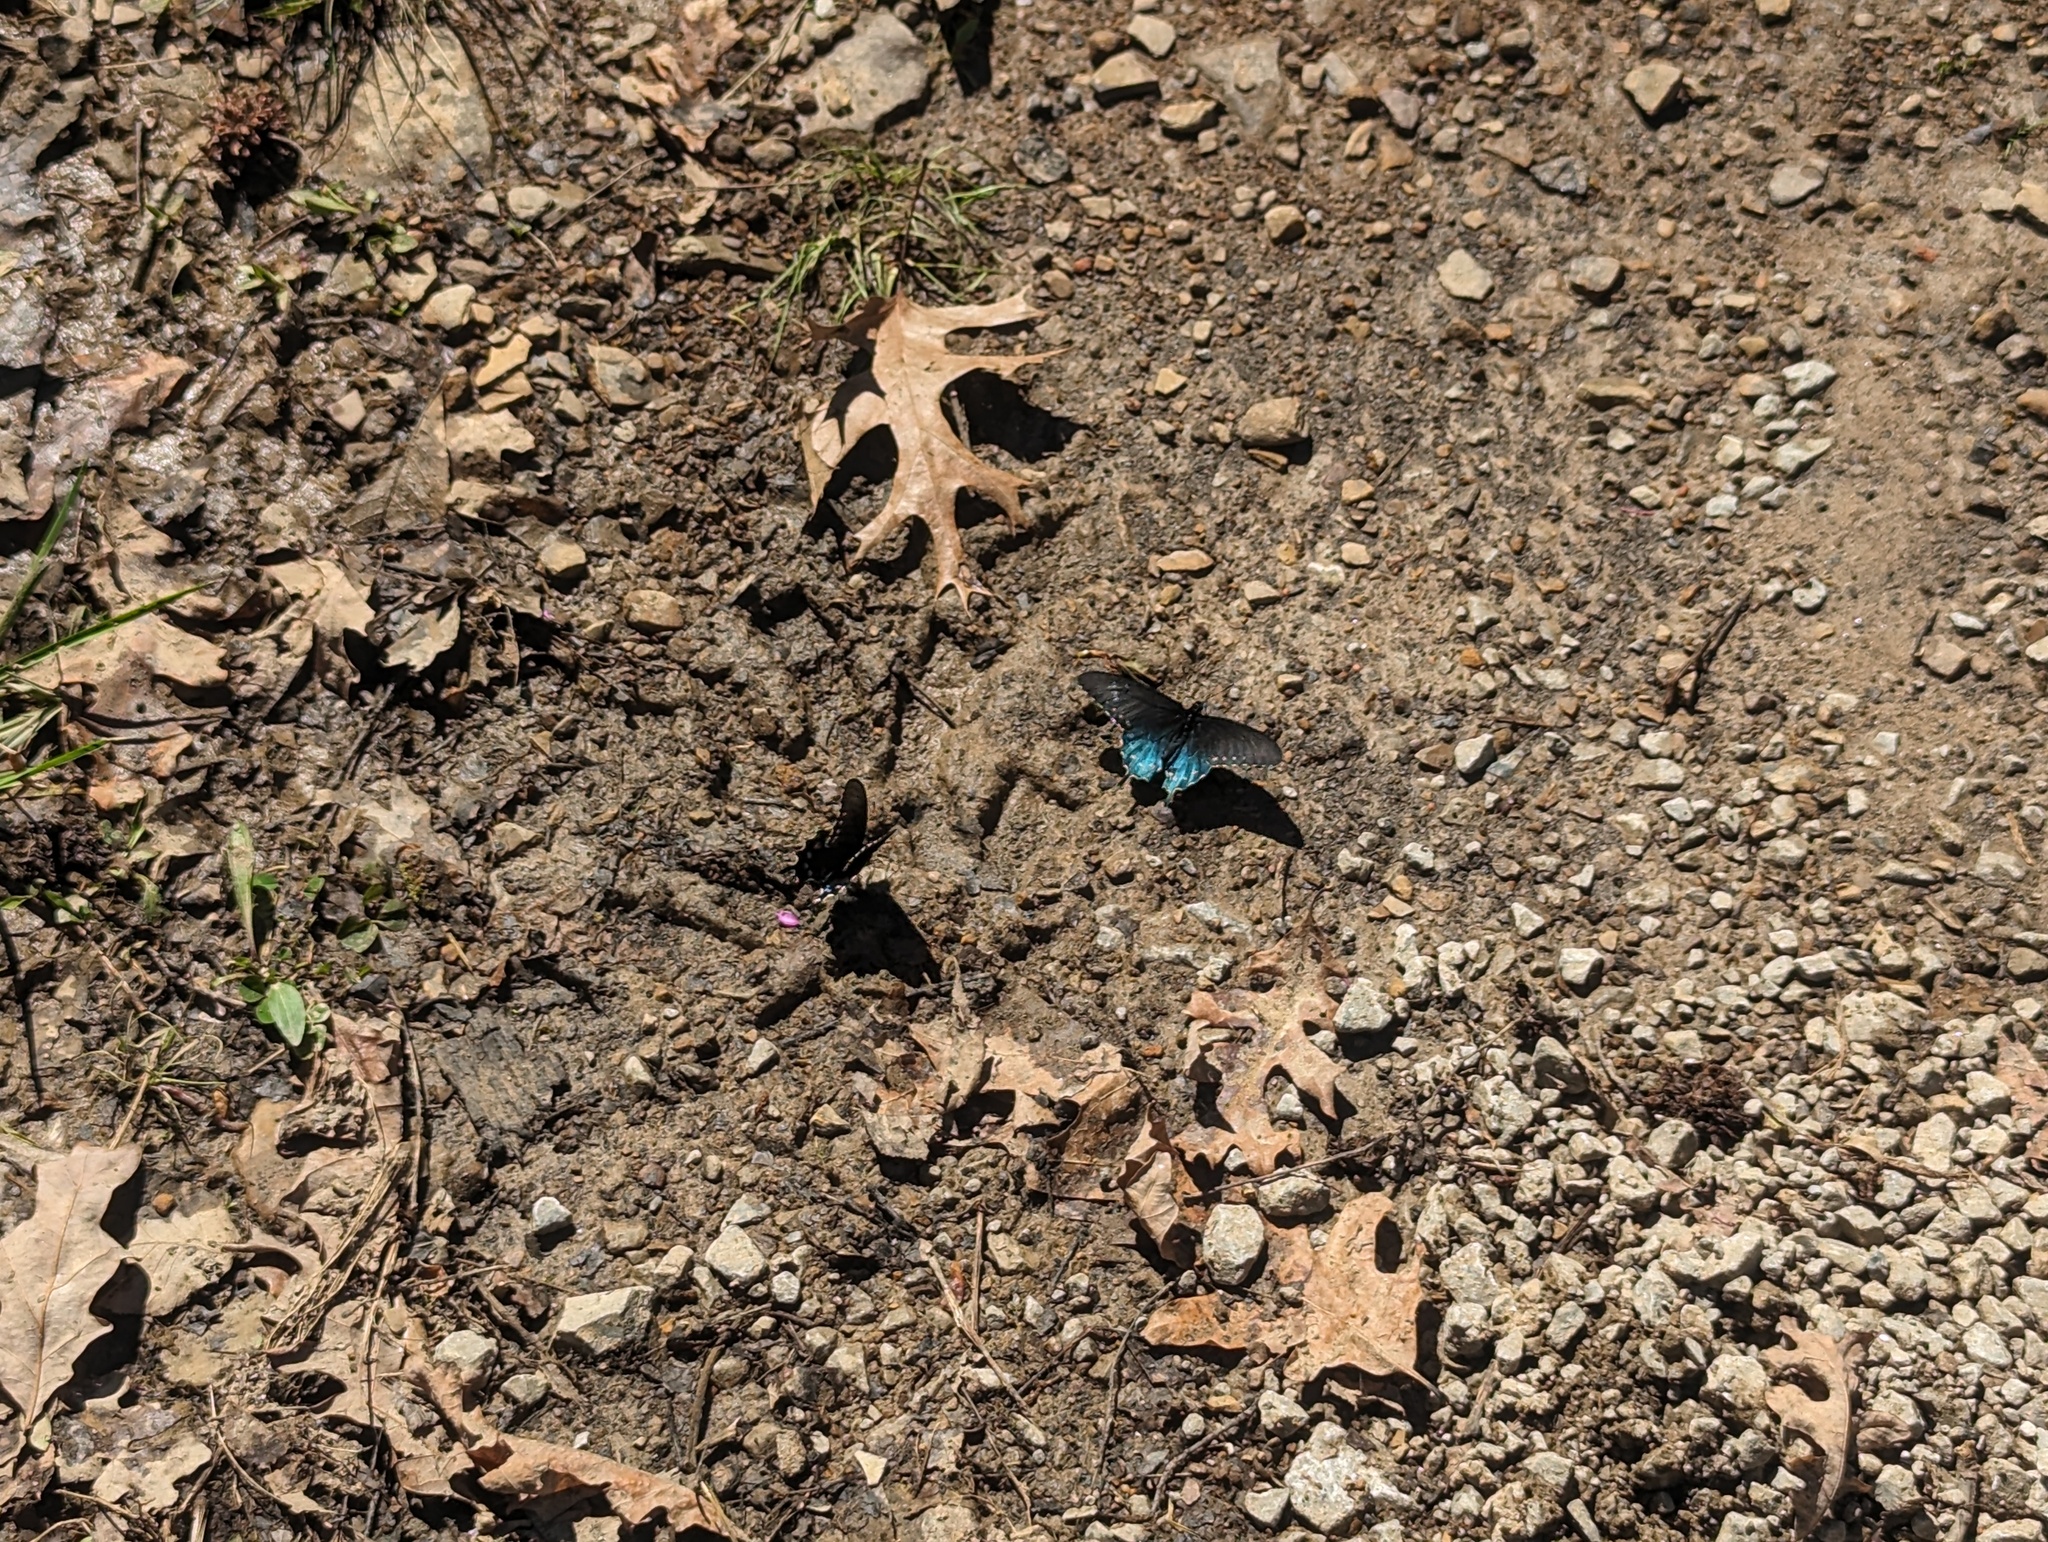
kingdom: Animalia
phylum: Arthropoda
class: Insecta
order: Lepidoptera
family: Papilionidae
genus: Battus
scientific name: Battus philenor
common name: Pipevine swallowtail
